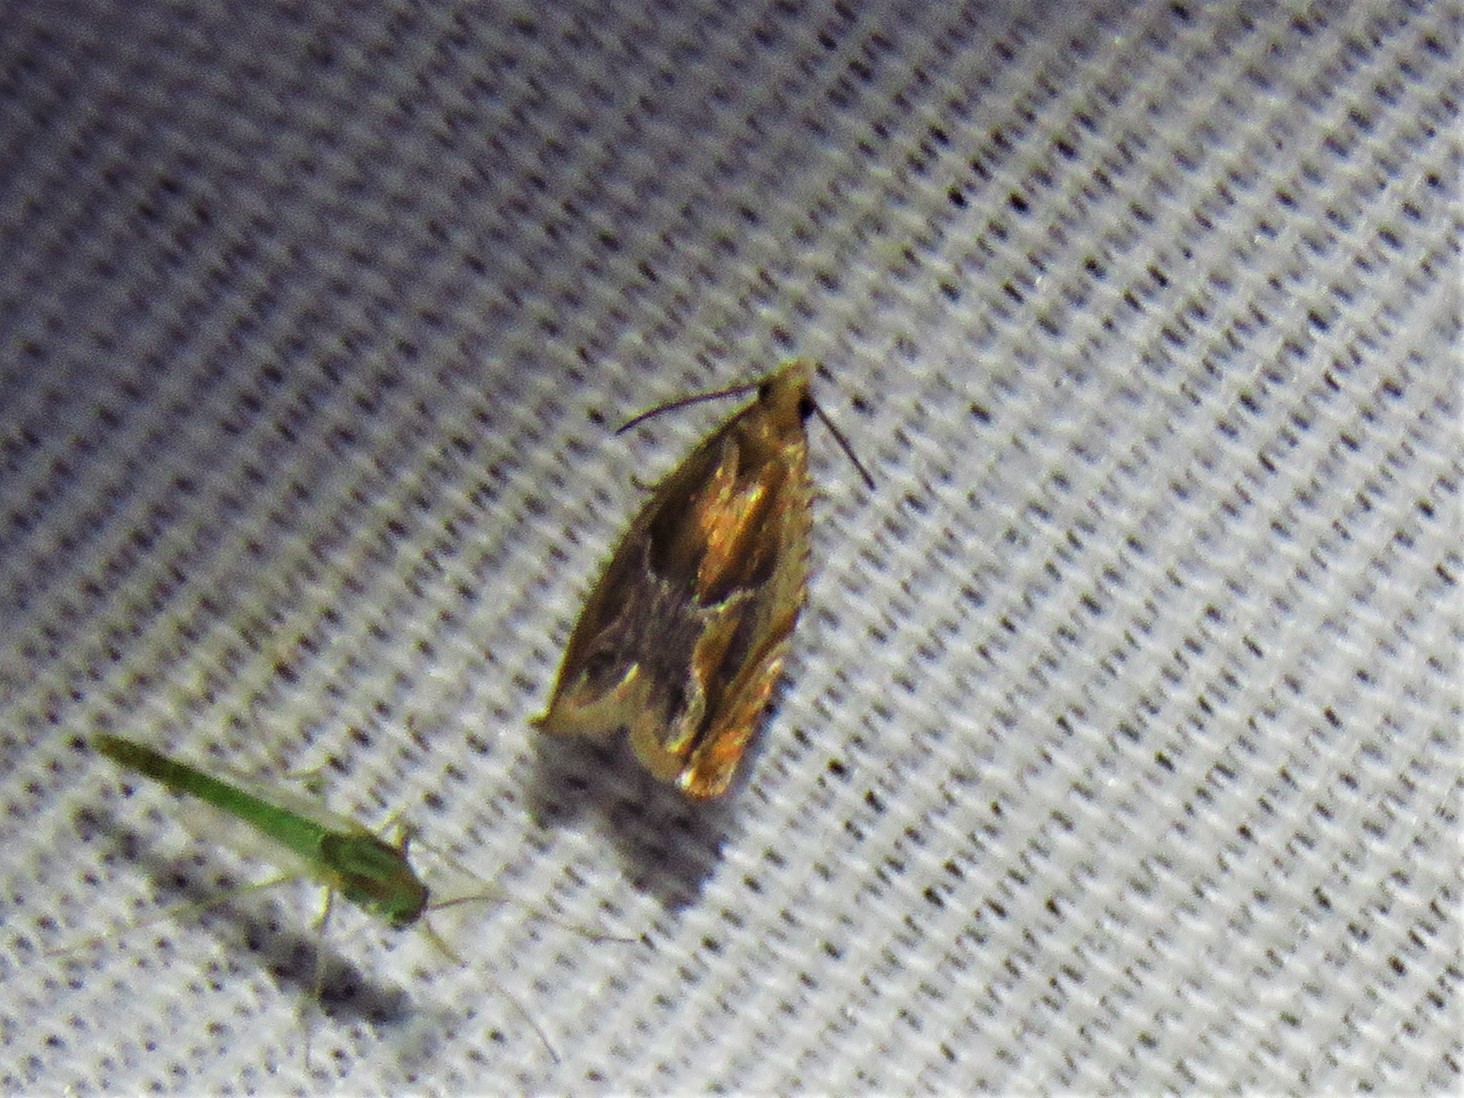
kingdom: Animalia
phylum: Arthropoda
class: Insecta
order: Lepidoptera
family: Tortricidae
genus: Ancylis
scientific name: Ancylis comptana
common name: Little roller
